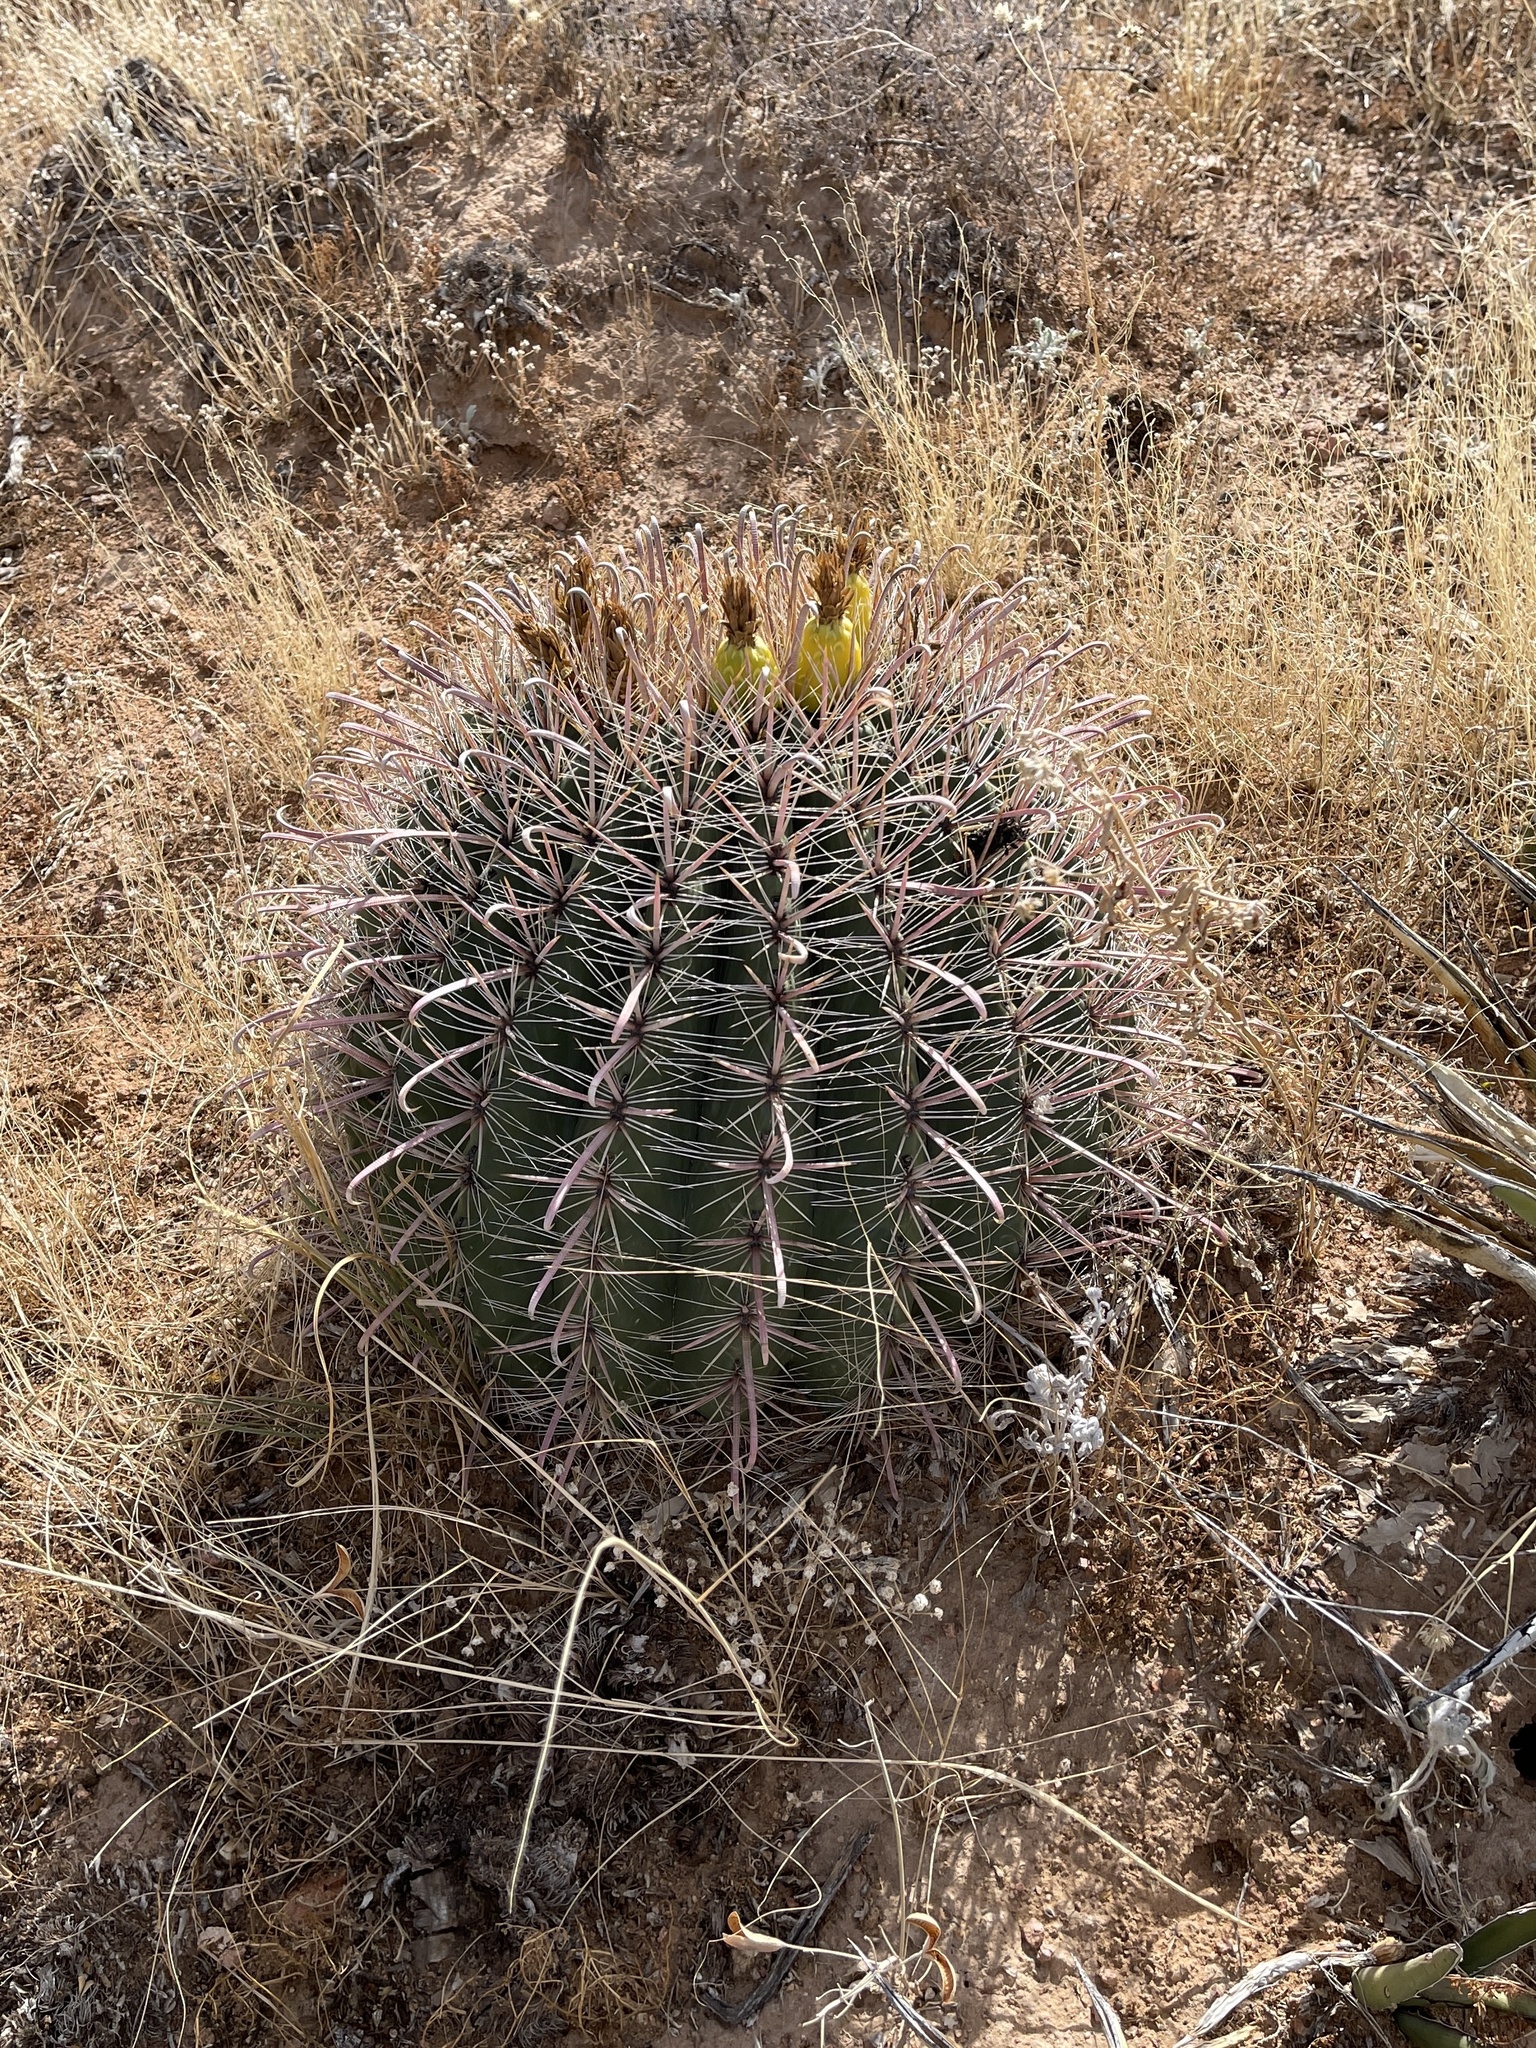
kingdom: Plantae
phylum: Tracheophyta
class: Magnoliopsida
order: Caryophyllales
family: Cactaceae
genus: Ferocactus
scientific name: Ferocactus wislizeni
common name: Candy barrel cactus
